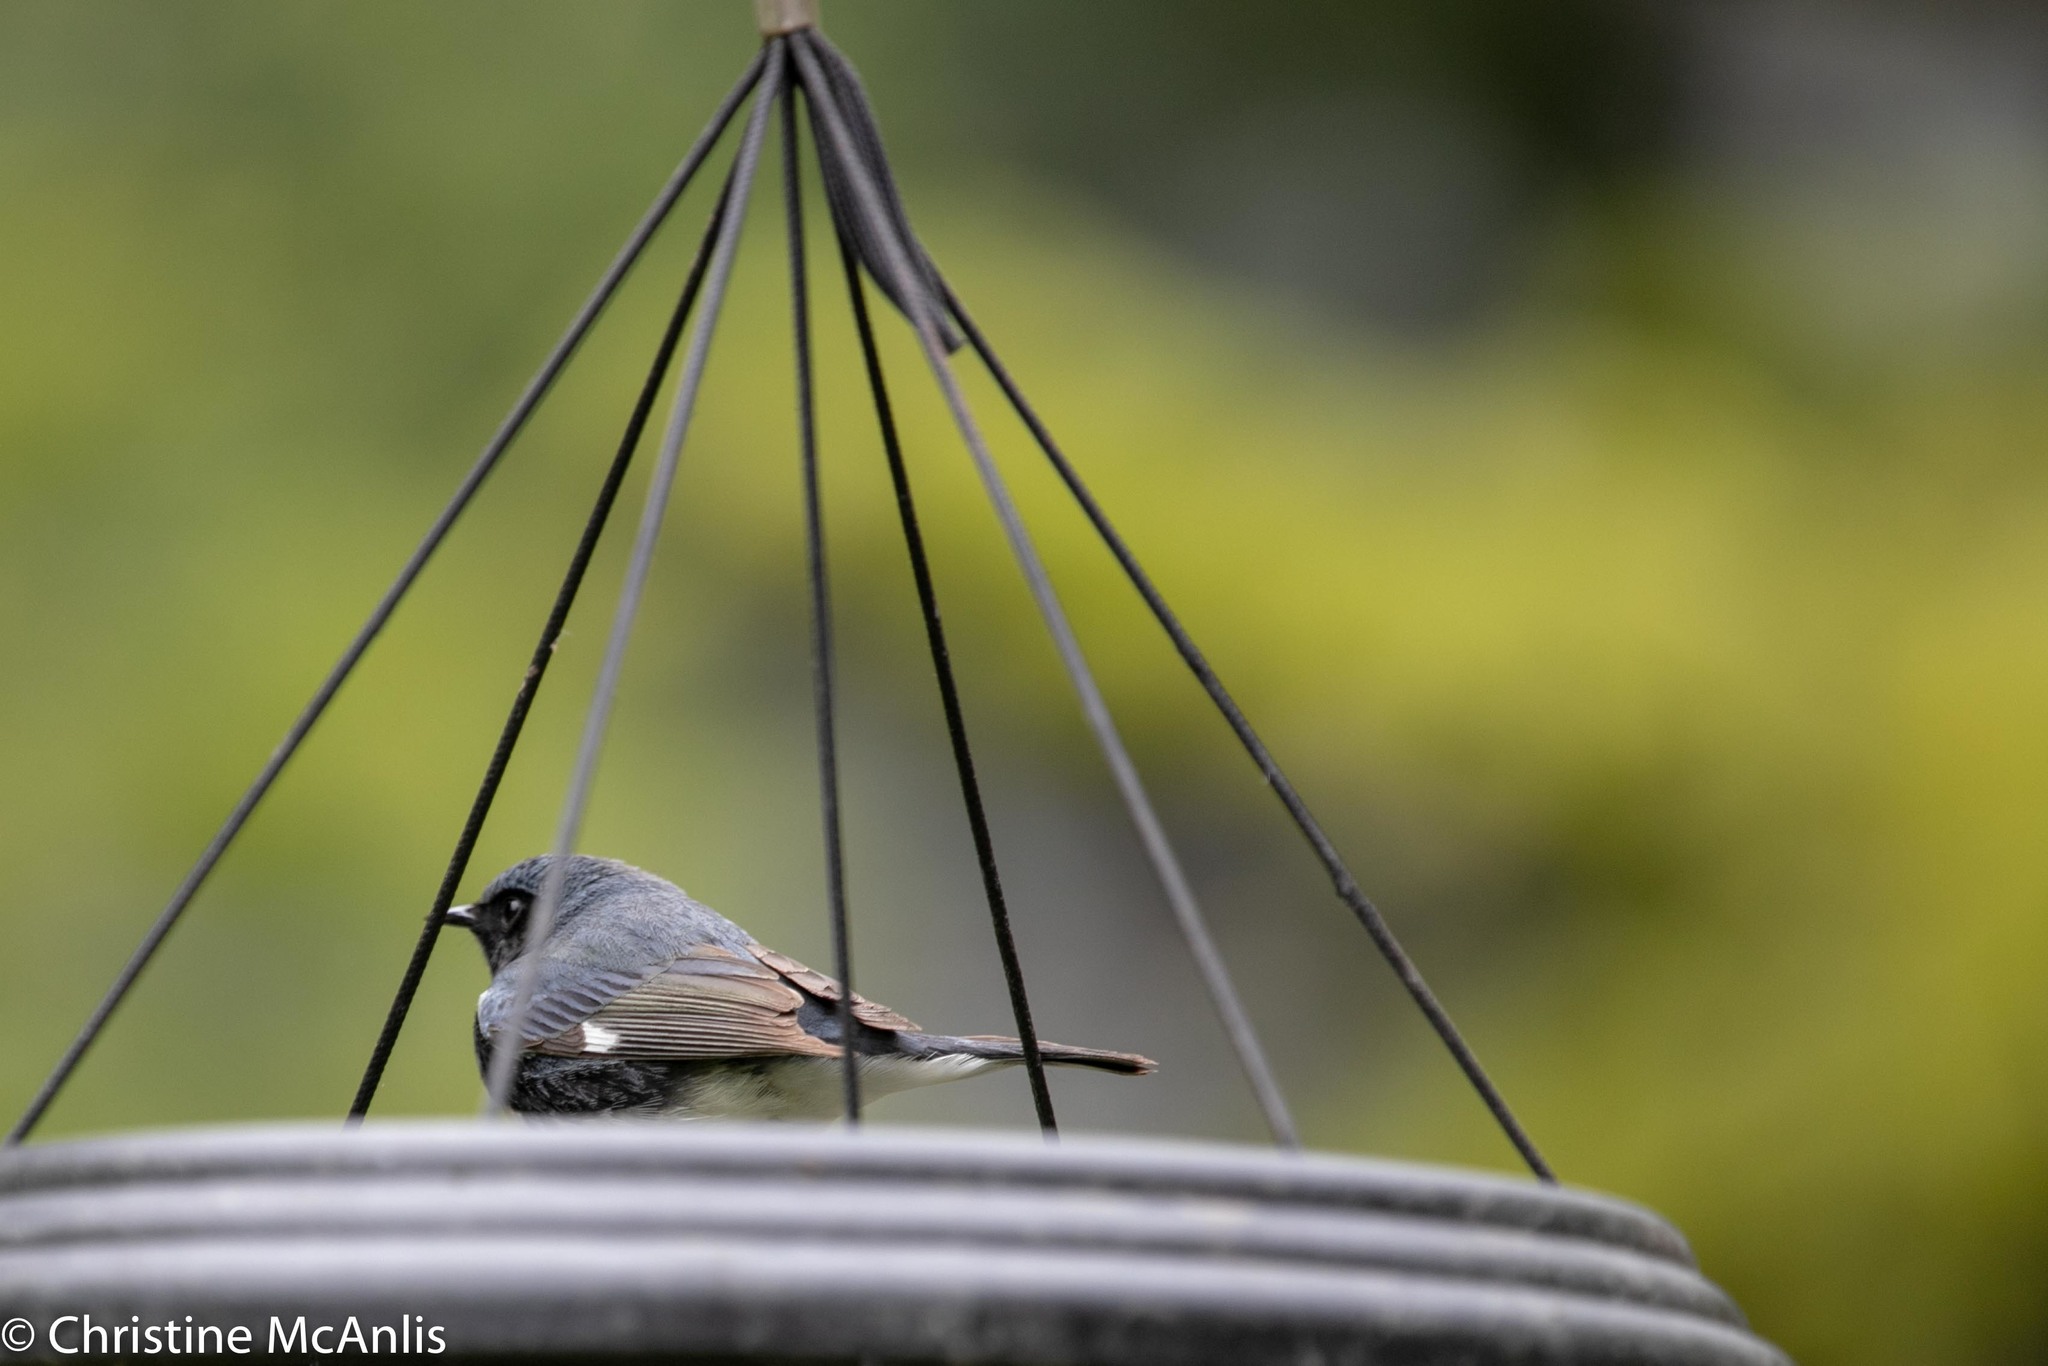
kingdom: Animalia
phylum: Chordata
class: Aves
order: Passeriformes
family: Parulidae
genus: Setophaga
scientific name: Setophaga caerulescens
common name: Black-throated blue warbler
